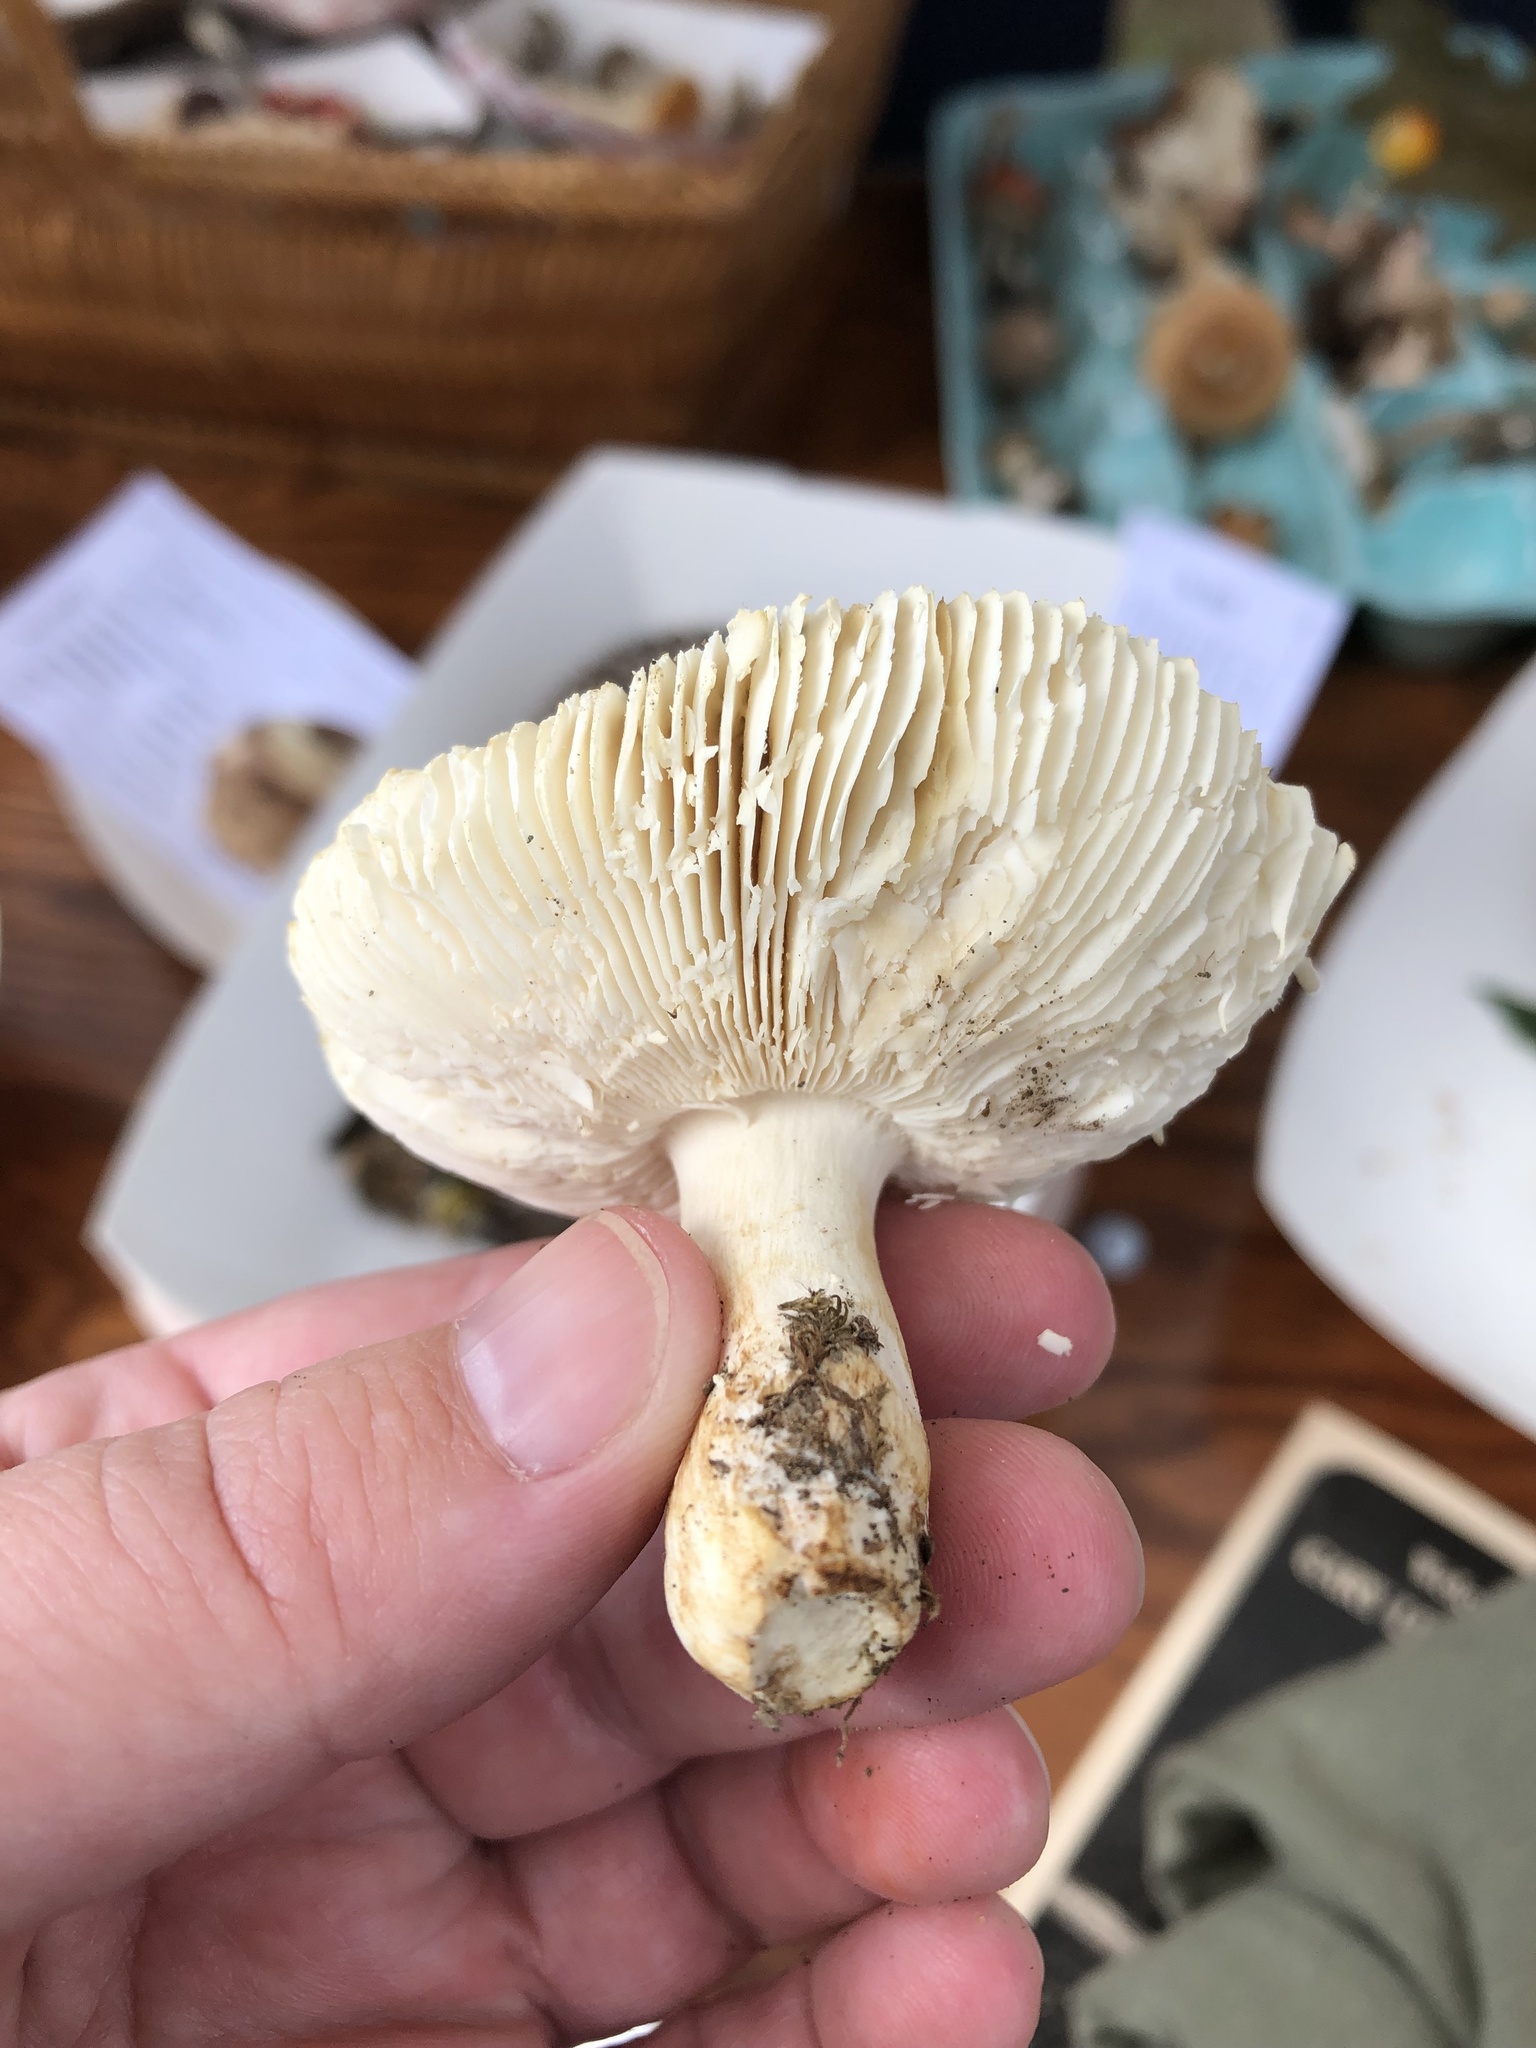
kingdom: Fungi
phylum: Basidiomycota
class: Agaricomycetes
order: Russulales
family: Russulaceae
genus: Russula
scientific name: Russula parvovirescens
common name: Blue-green cracking russula
